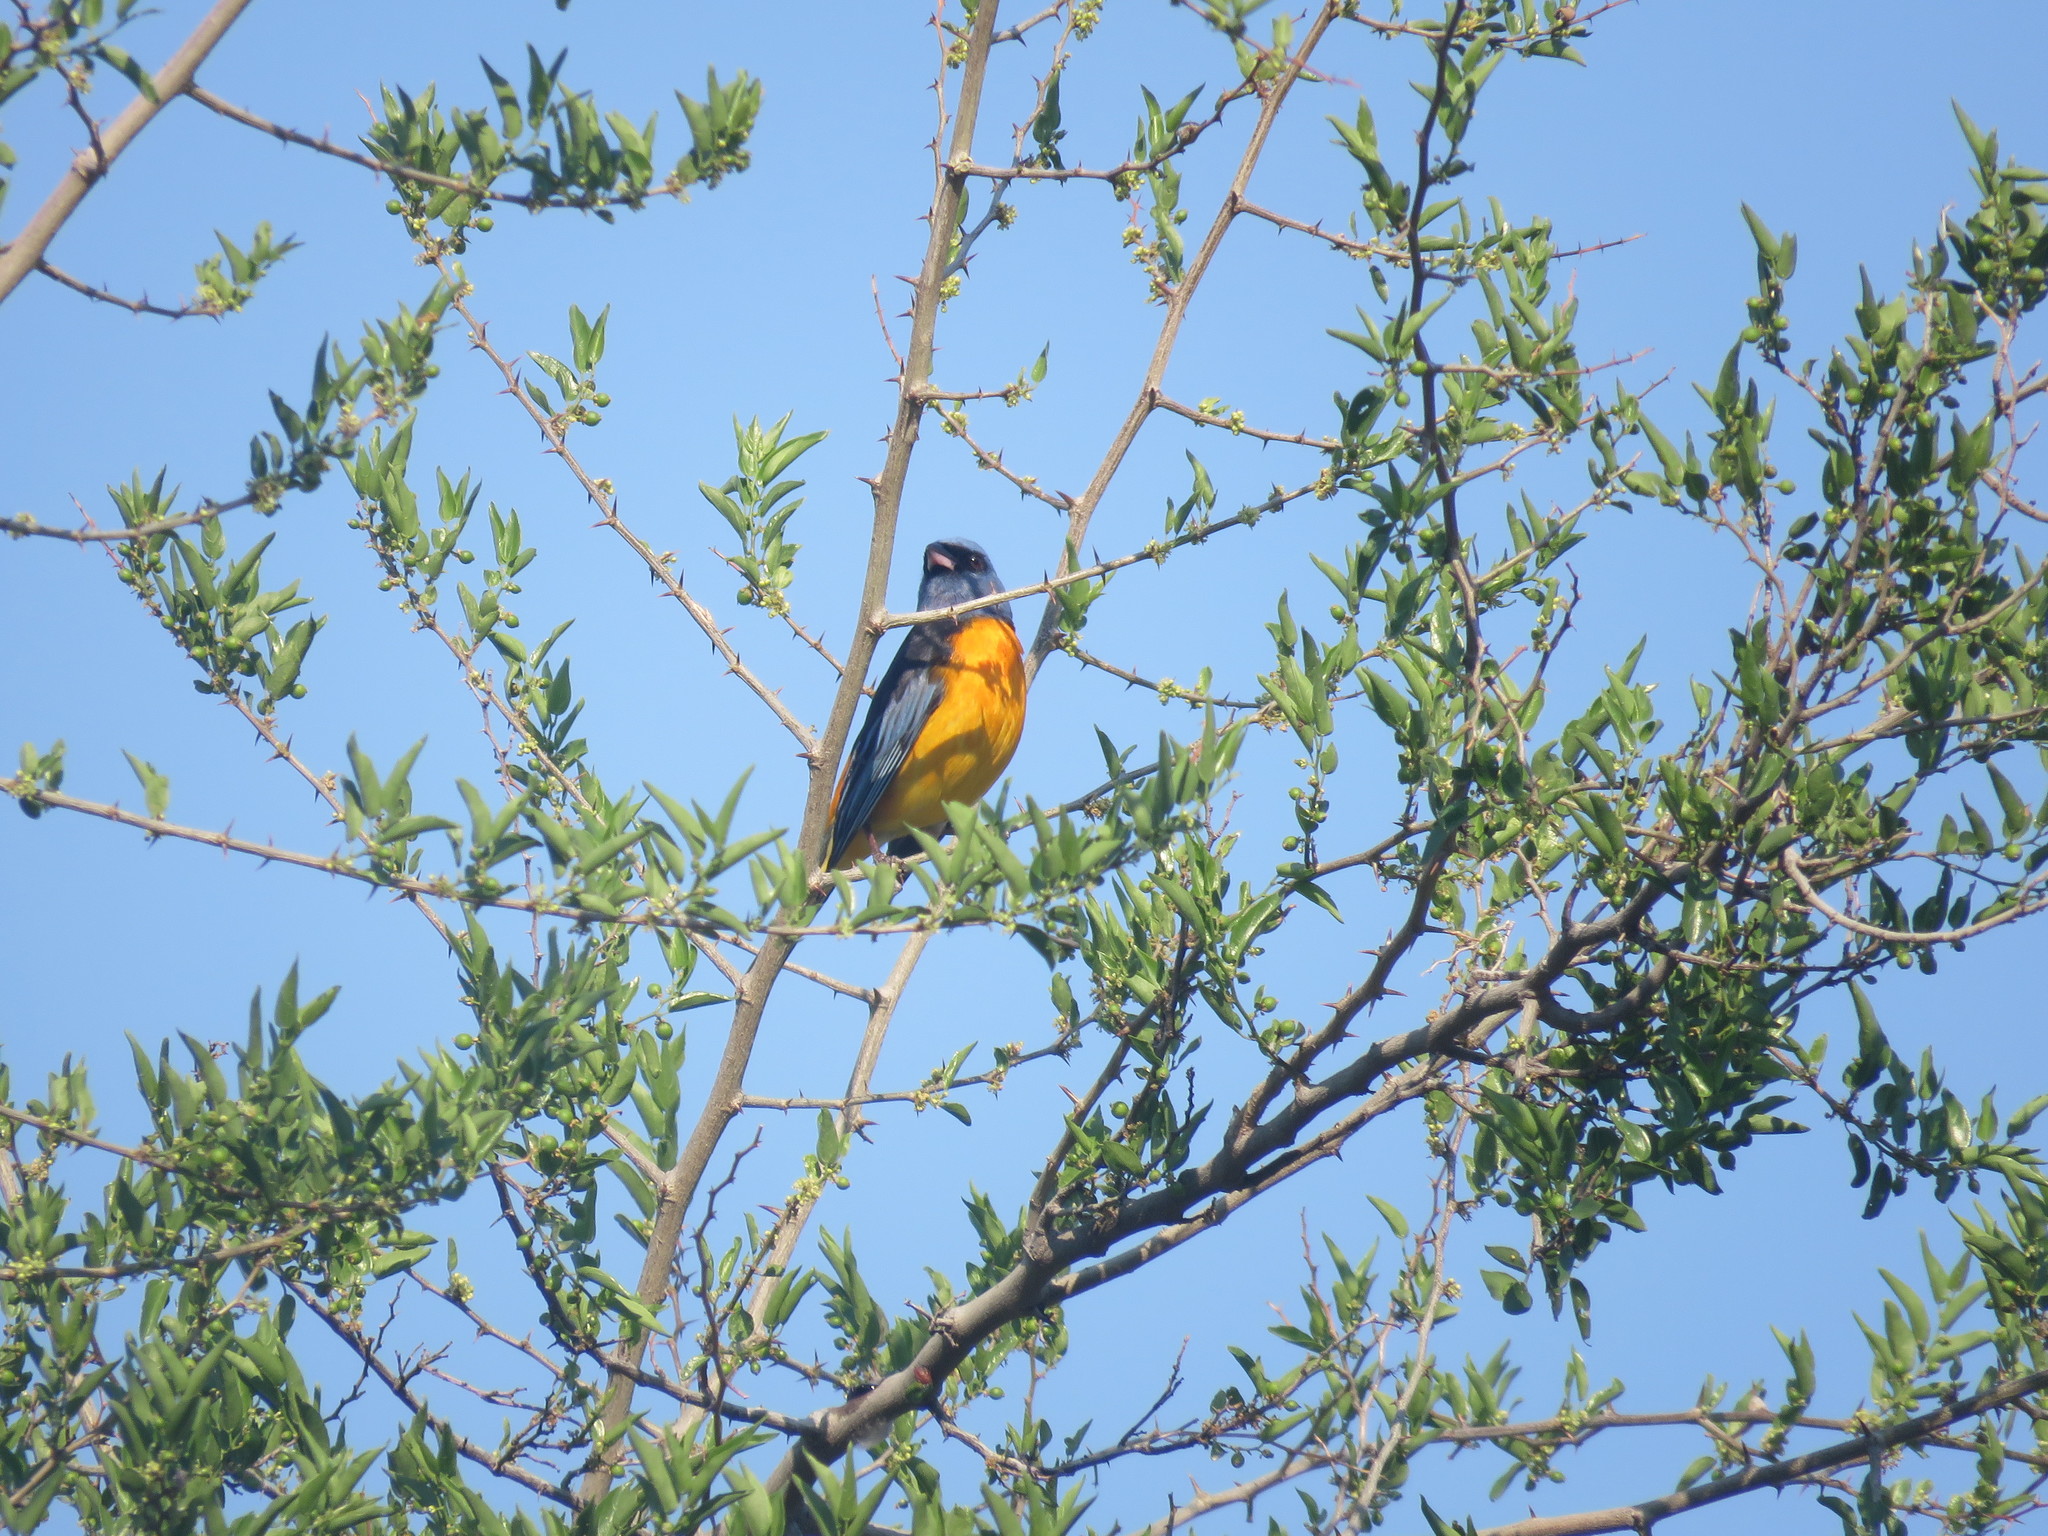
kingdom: Animalia
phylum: Chordata
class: Aves
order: Passeriformes
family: Thraupidae
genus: Rauenia
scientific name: Rauenia bonariensis
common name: Blue-and-yellow tanager
